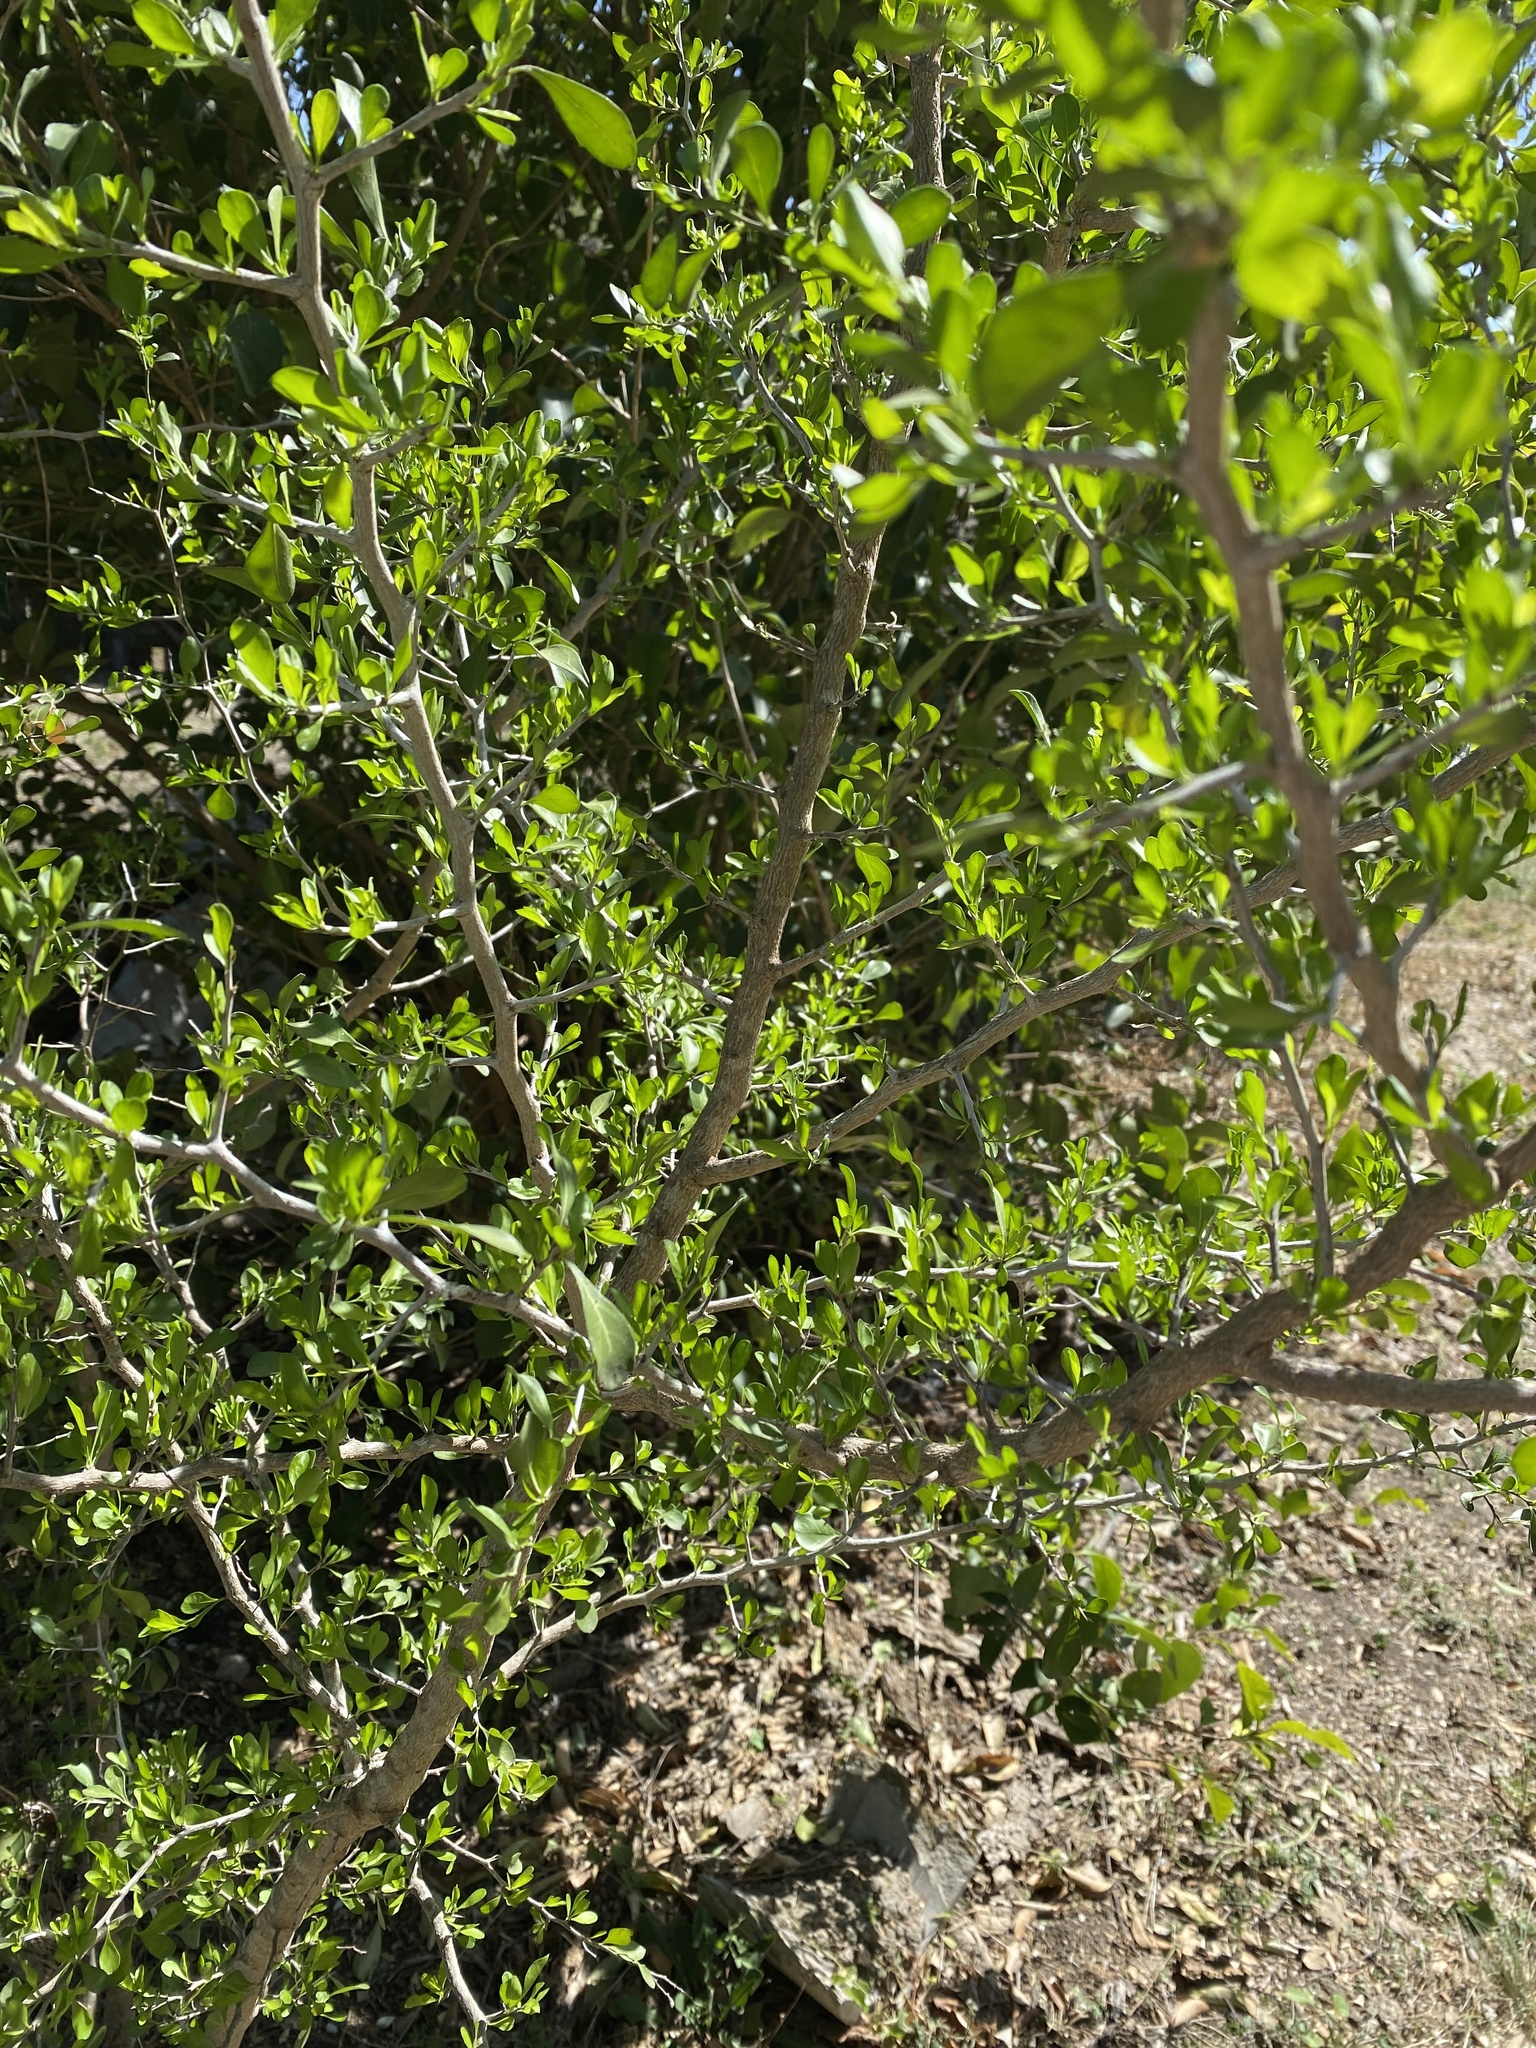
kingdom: Plantae
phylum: Tracheophyta
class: Magnoliopsida
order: Rosales
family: Rhamnaceae
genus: Condalia
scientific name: Condalia hookeri
